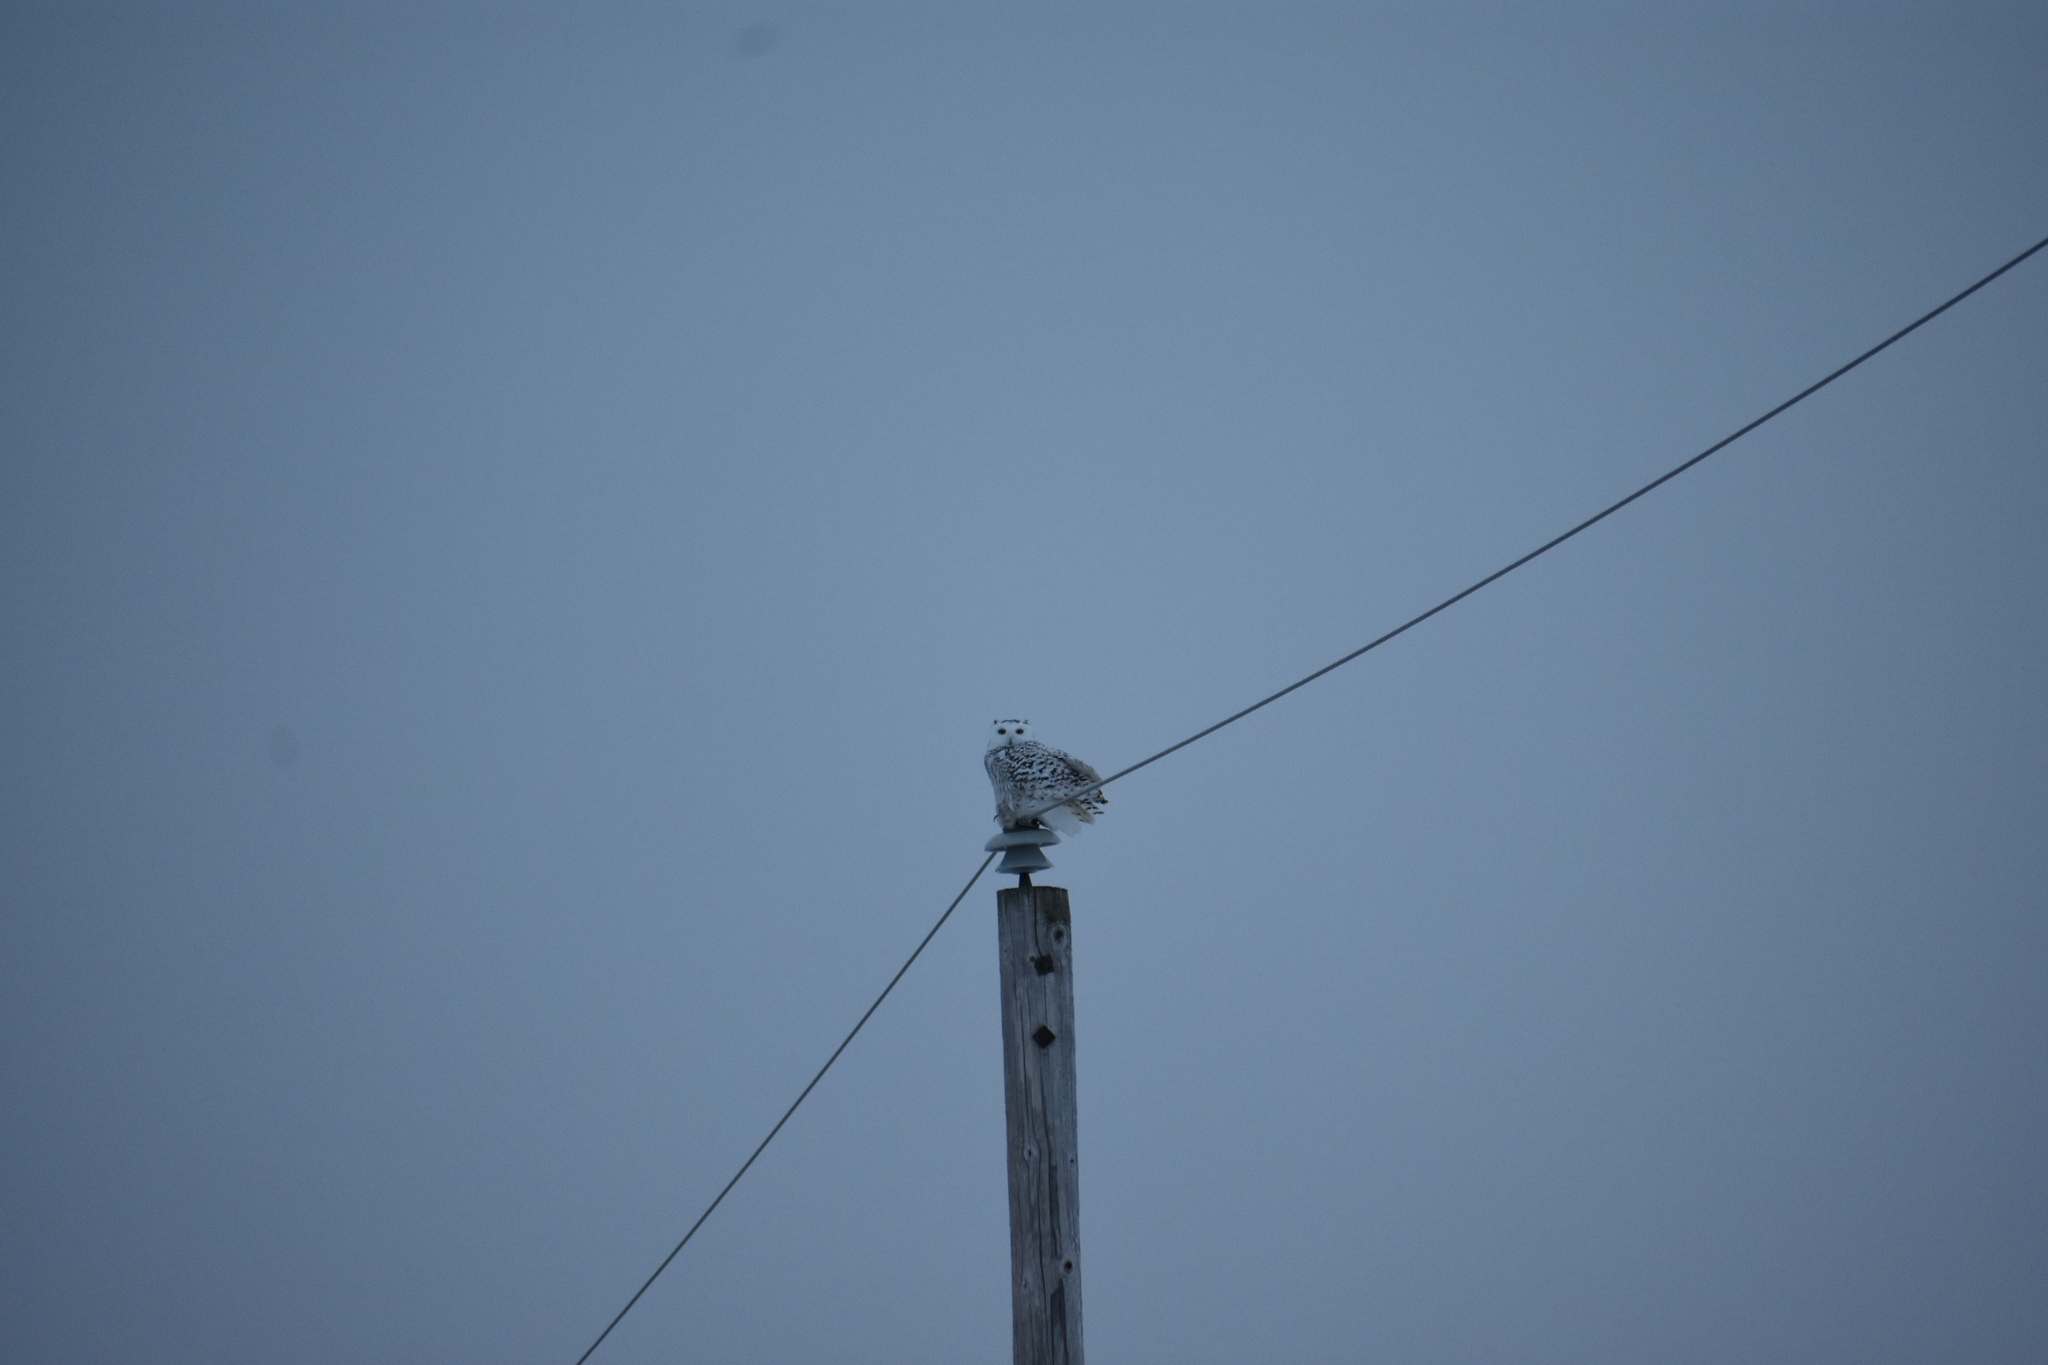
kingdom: Animalia
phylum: Chordata
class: Aves
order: Strigiformes
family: Strigidae
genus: Bubo
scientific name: Bubo scandiacus
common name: Snowy owl
